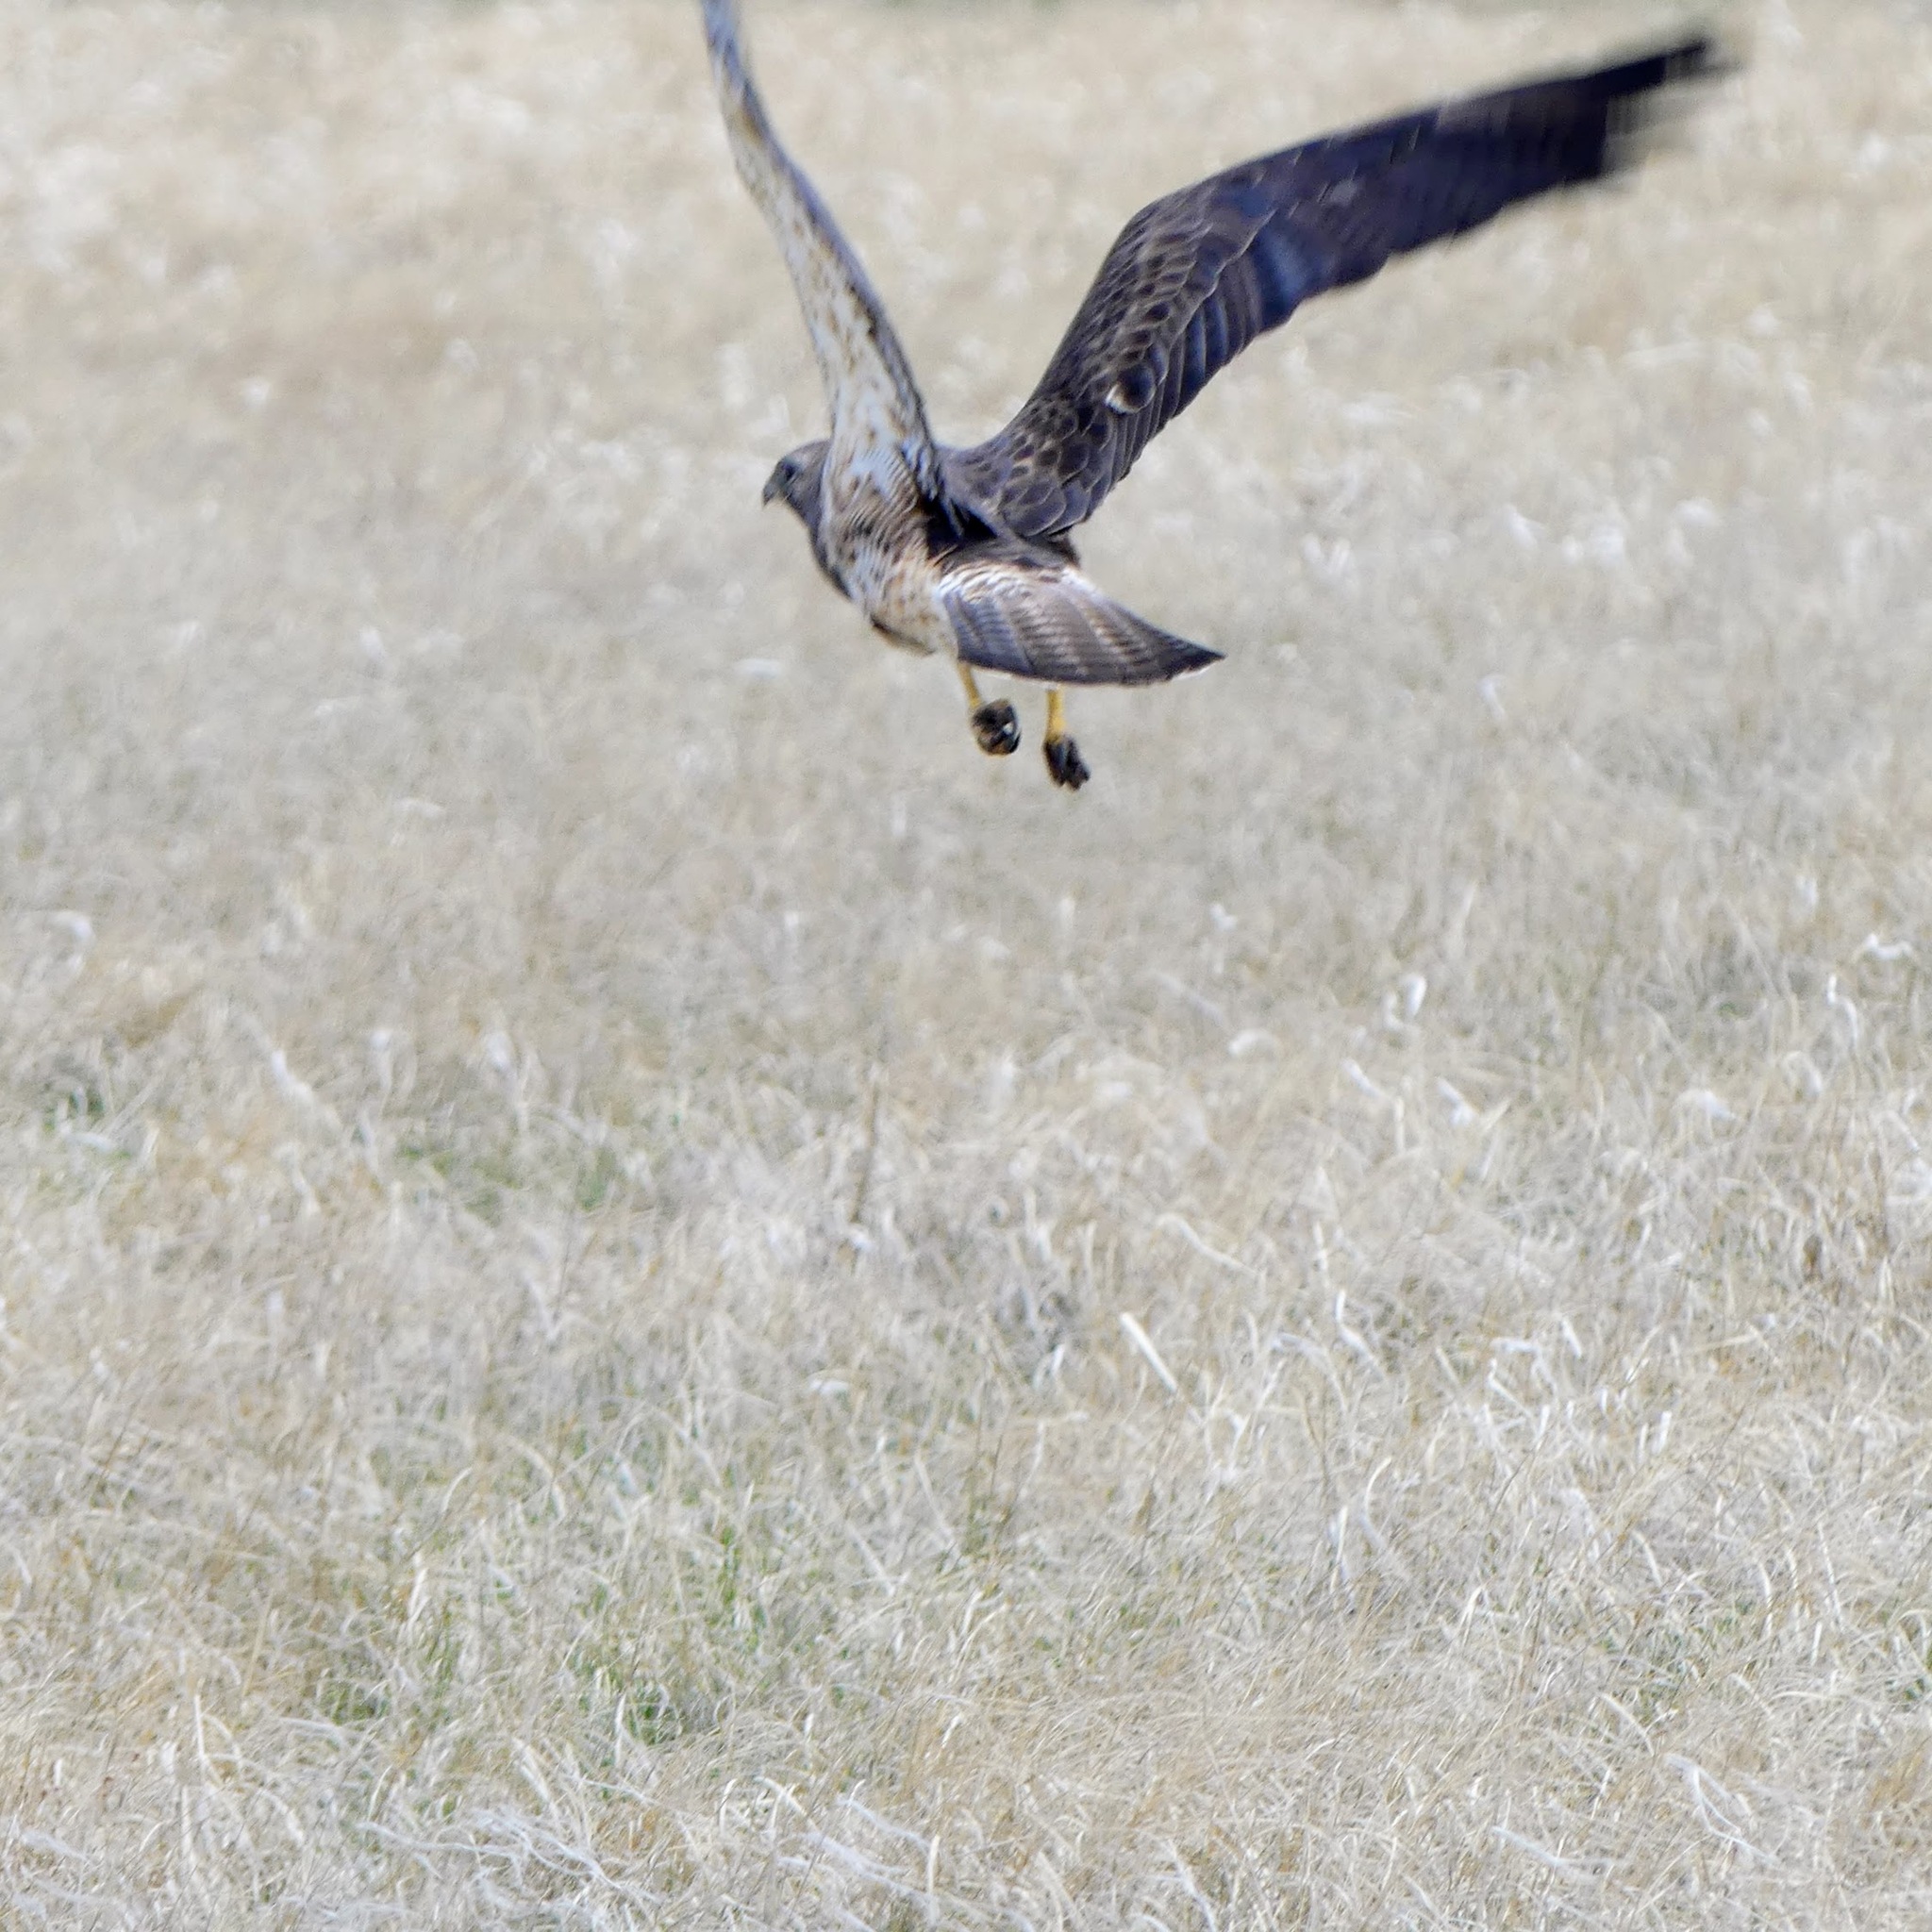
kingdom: Animalia
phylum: Chordata
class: Aves
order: Accipitriformes
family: Accipitridae
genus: Buteo
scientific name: Buteo swainsoni
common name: Swainson's hawk
